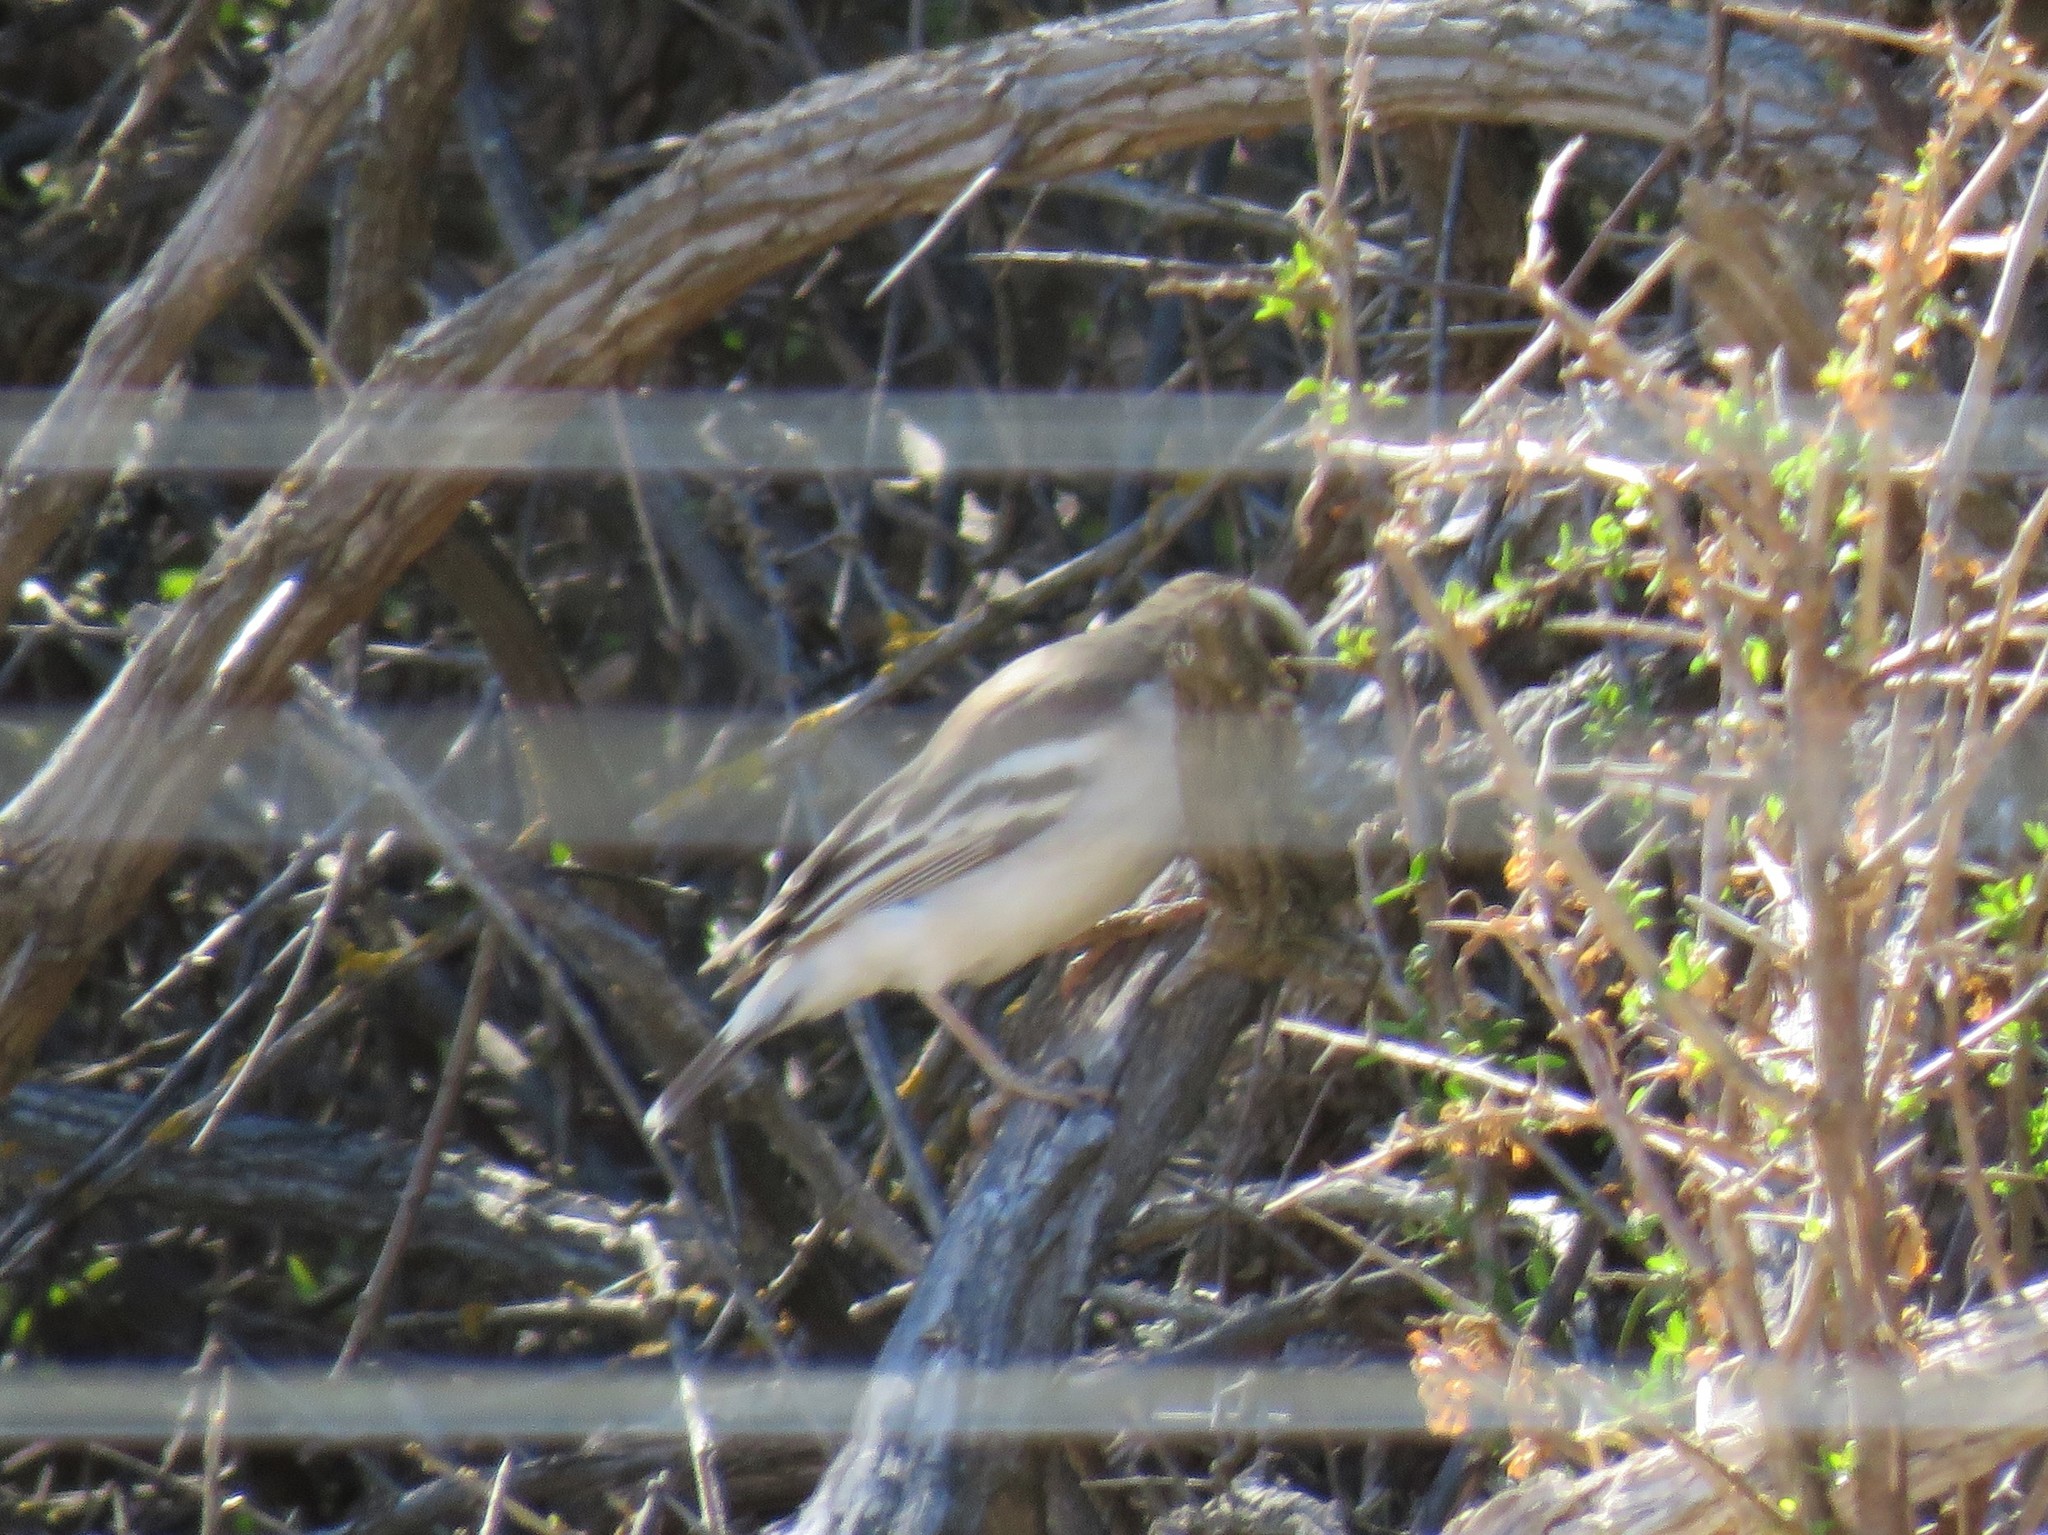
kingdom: Animalia
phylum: Chordata
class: Aves
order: Passeriformes
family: Passeridae
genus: Plocepasser
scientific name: Plocepasser mahali
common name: White-browed sparrow-weaver
